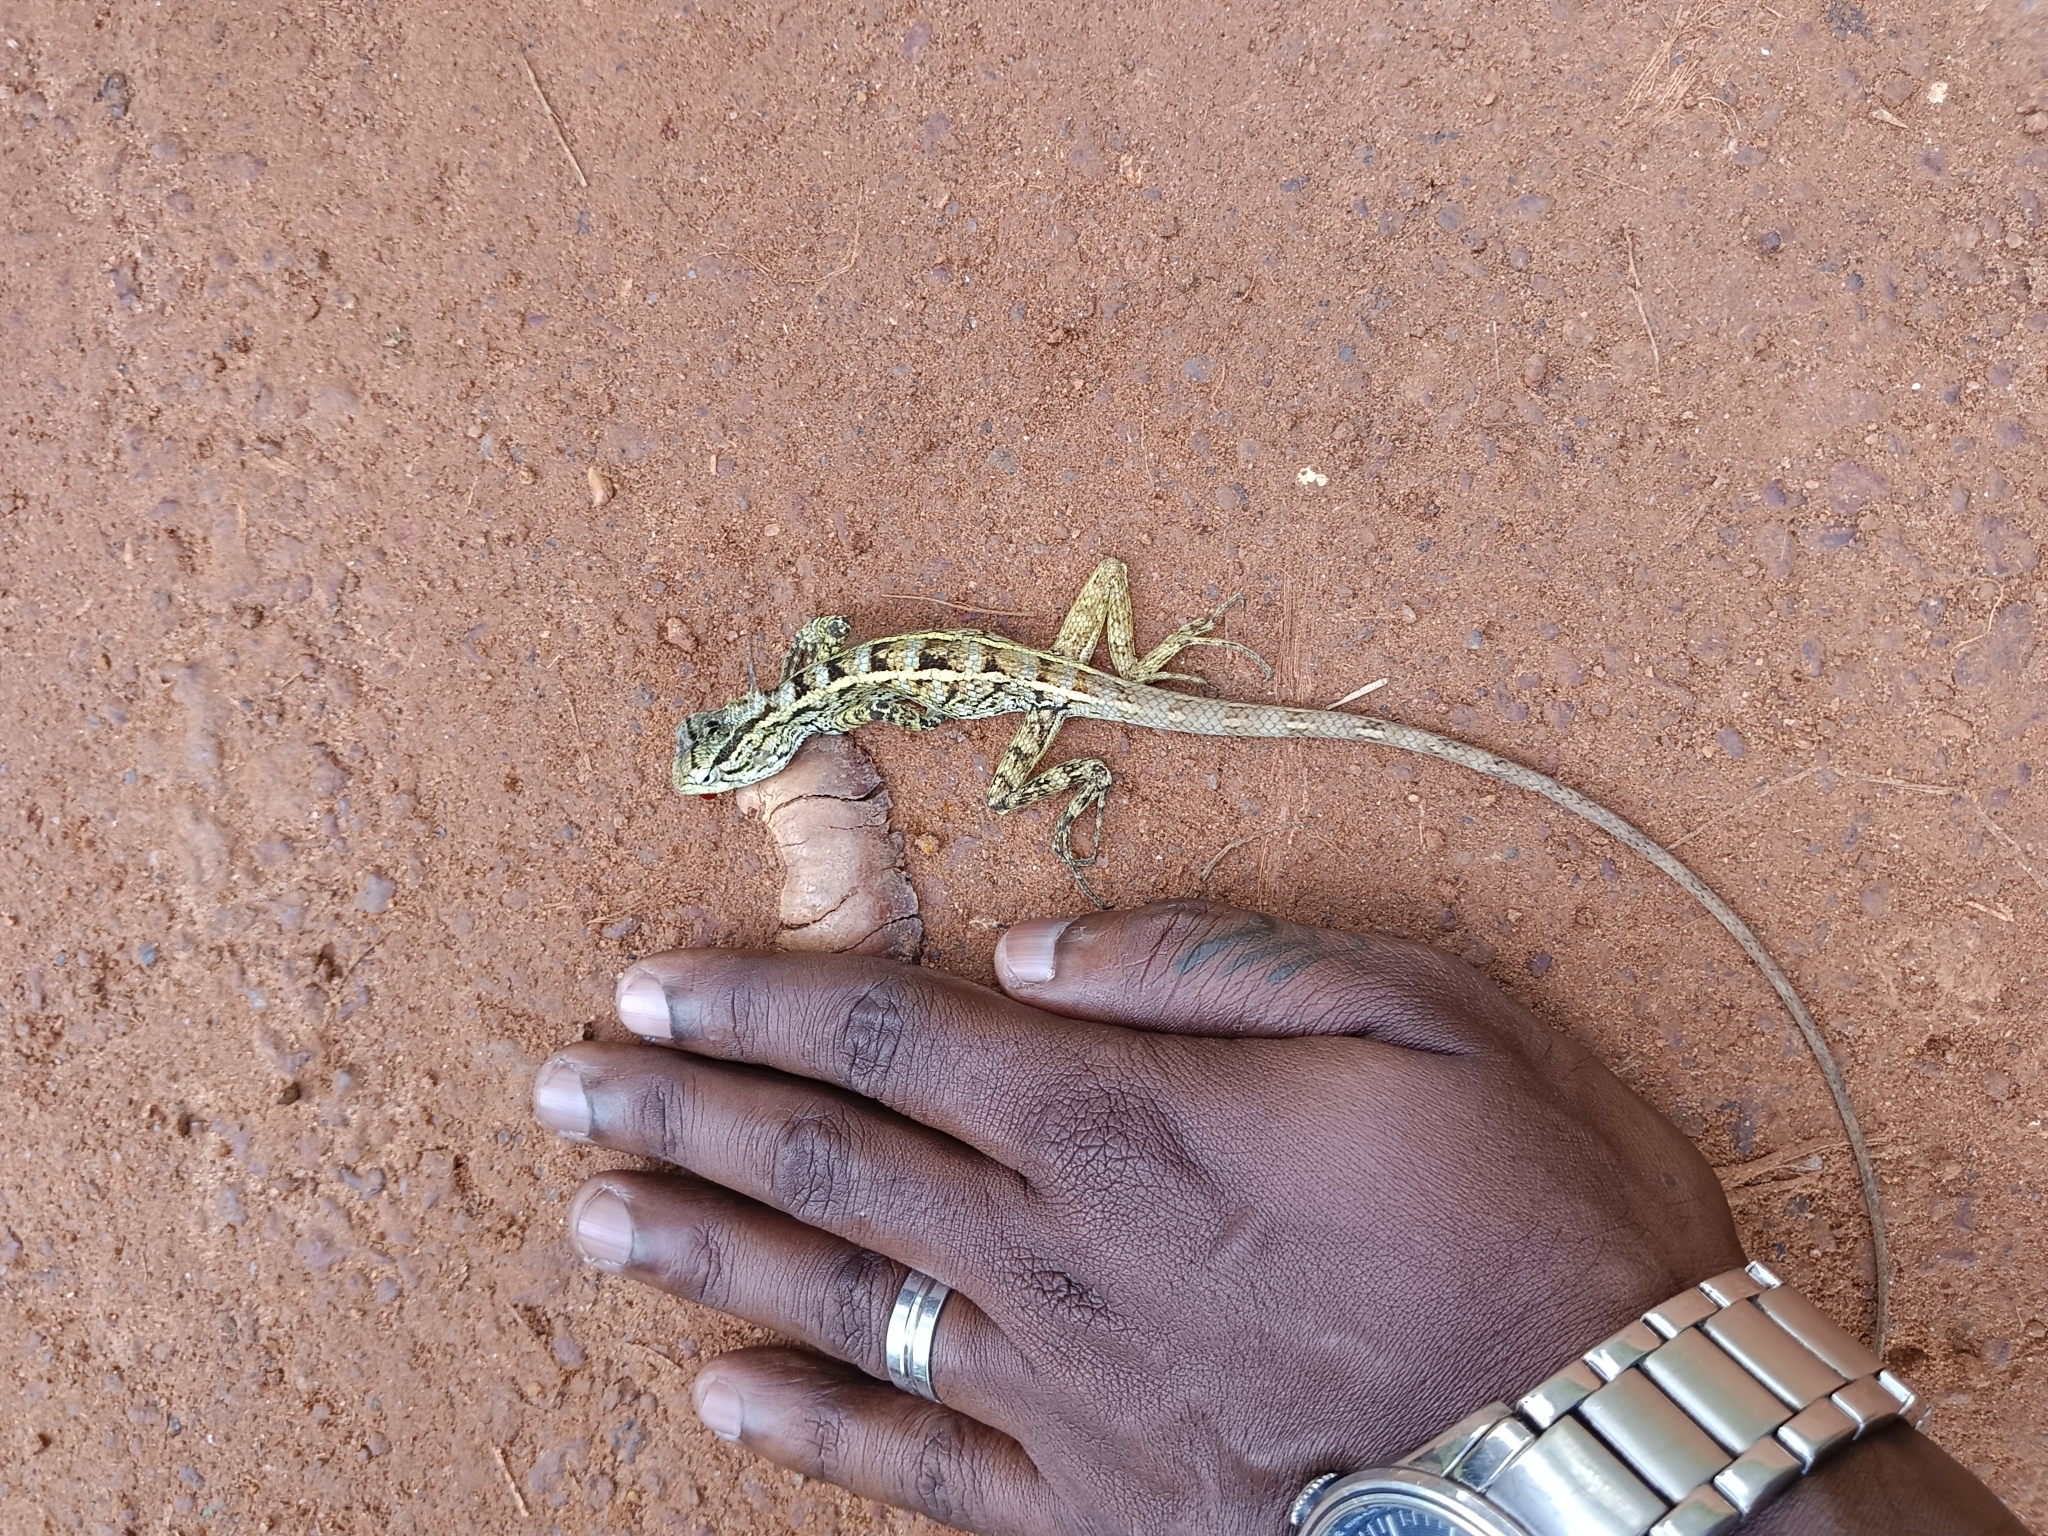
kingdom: Animalia
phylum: Chordata
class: Squamata
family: Agamidae
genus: Calotes
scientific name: Calotes versicolor
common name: Oriental garden lizard
